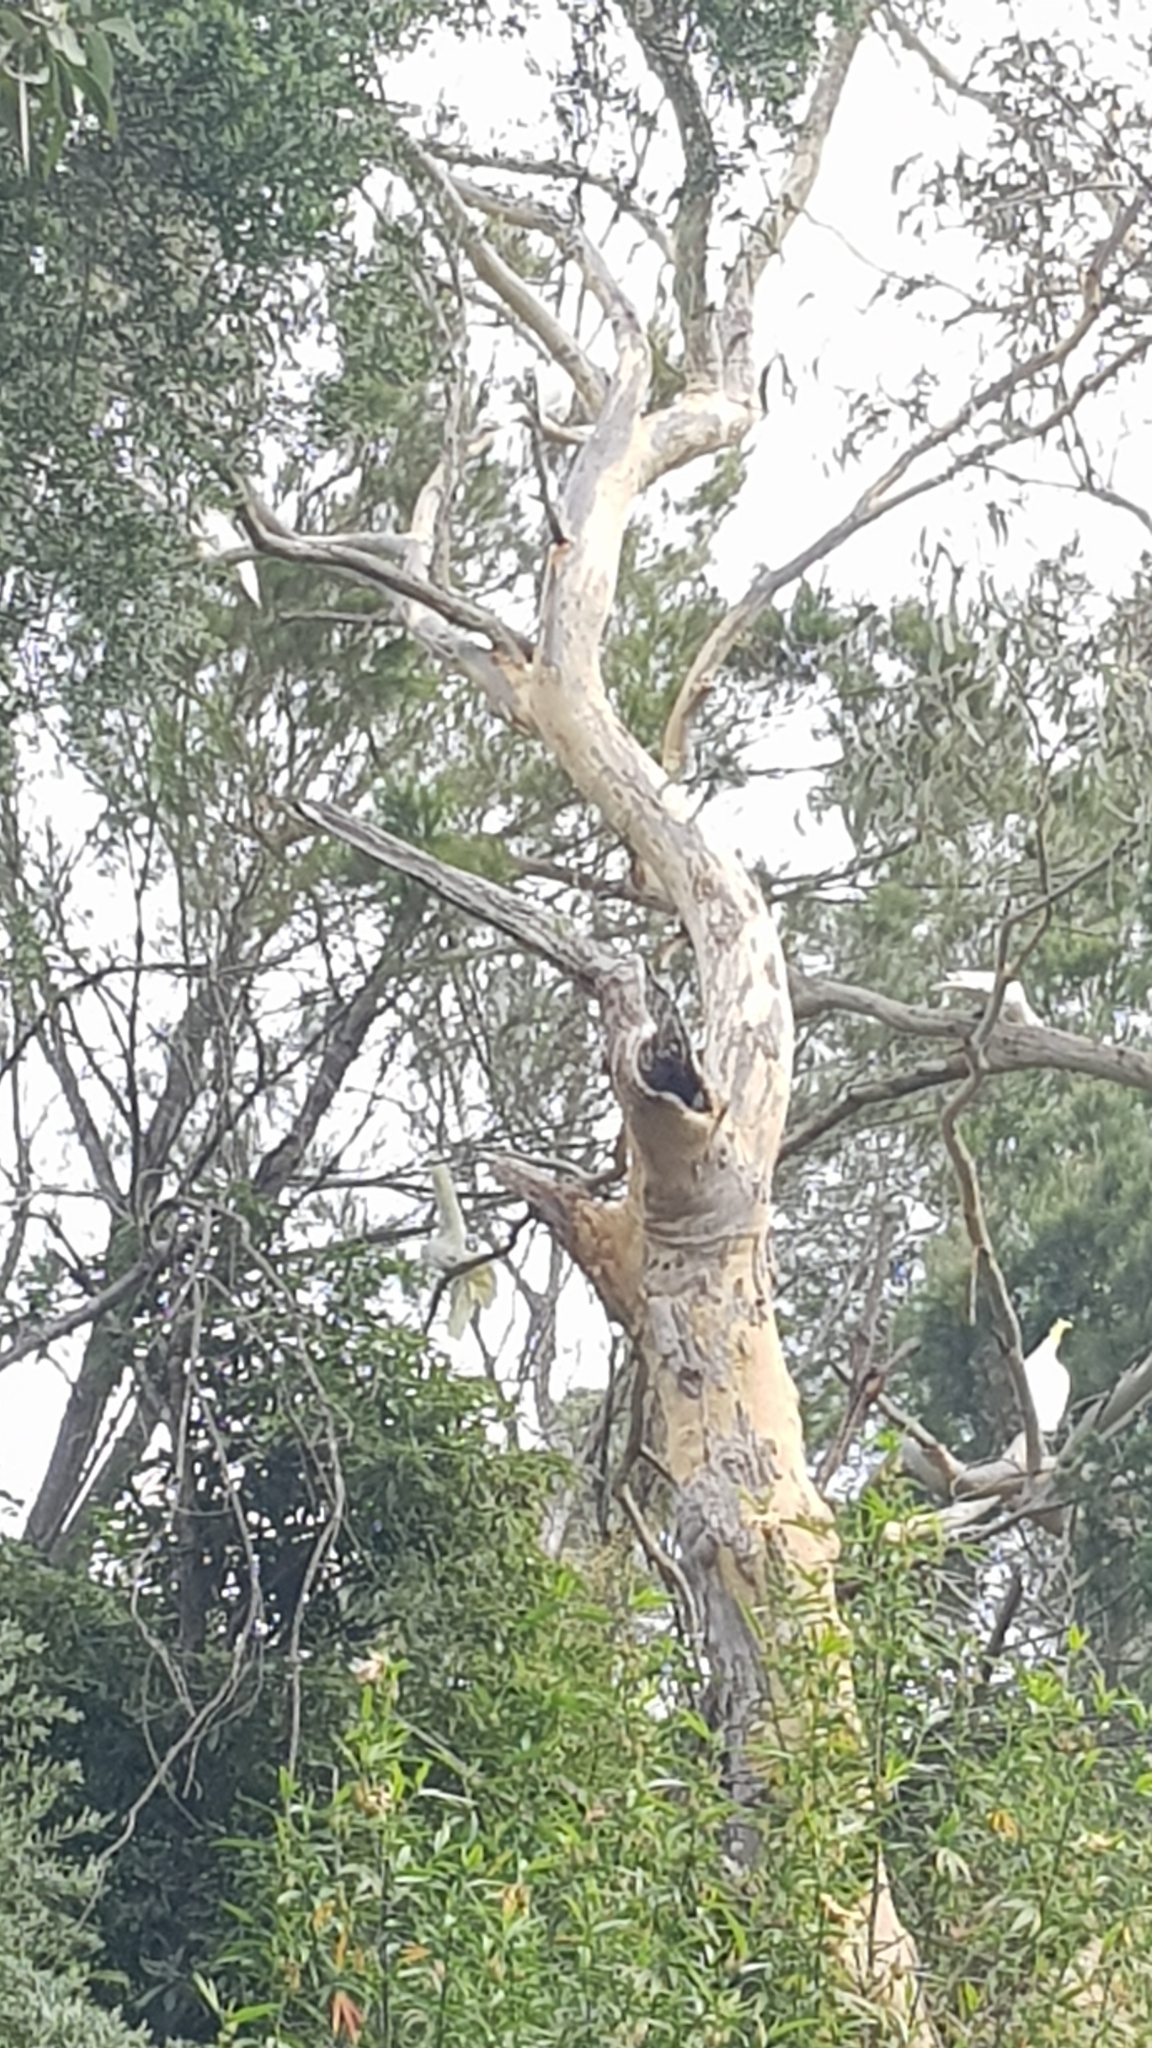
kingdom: Animalia
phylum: Chordata
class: Squamata
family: Varanidae
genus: Varanus
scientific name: Varanus varius
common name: Lace monitor
